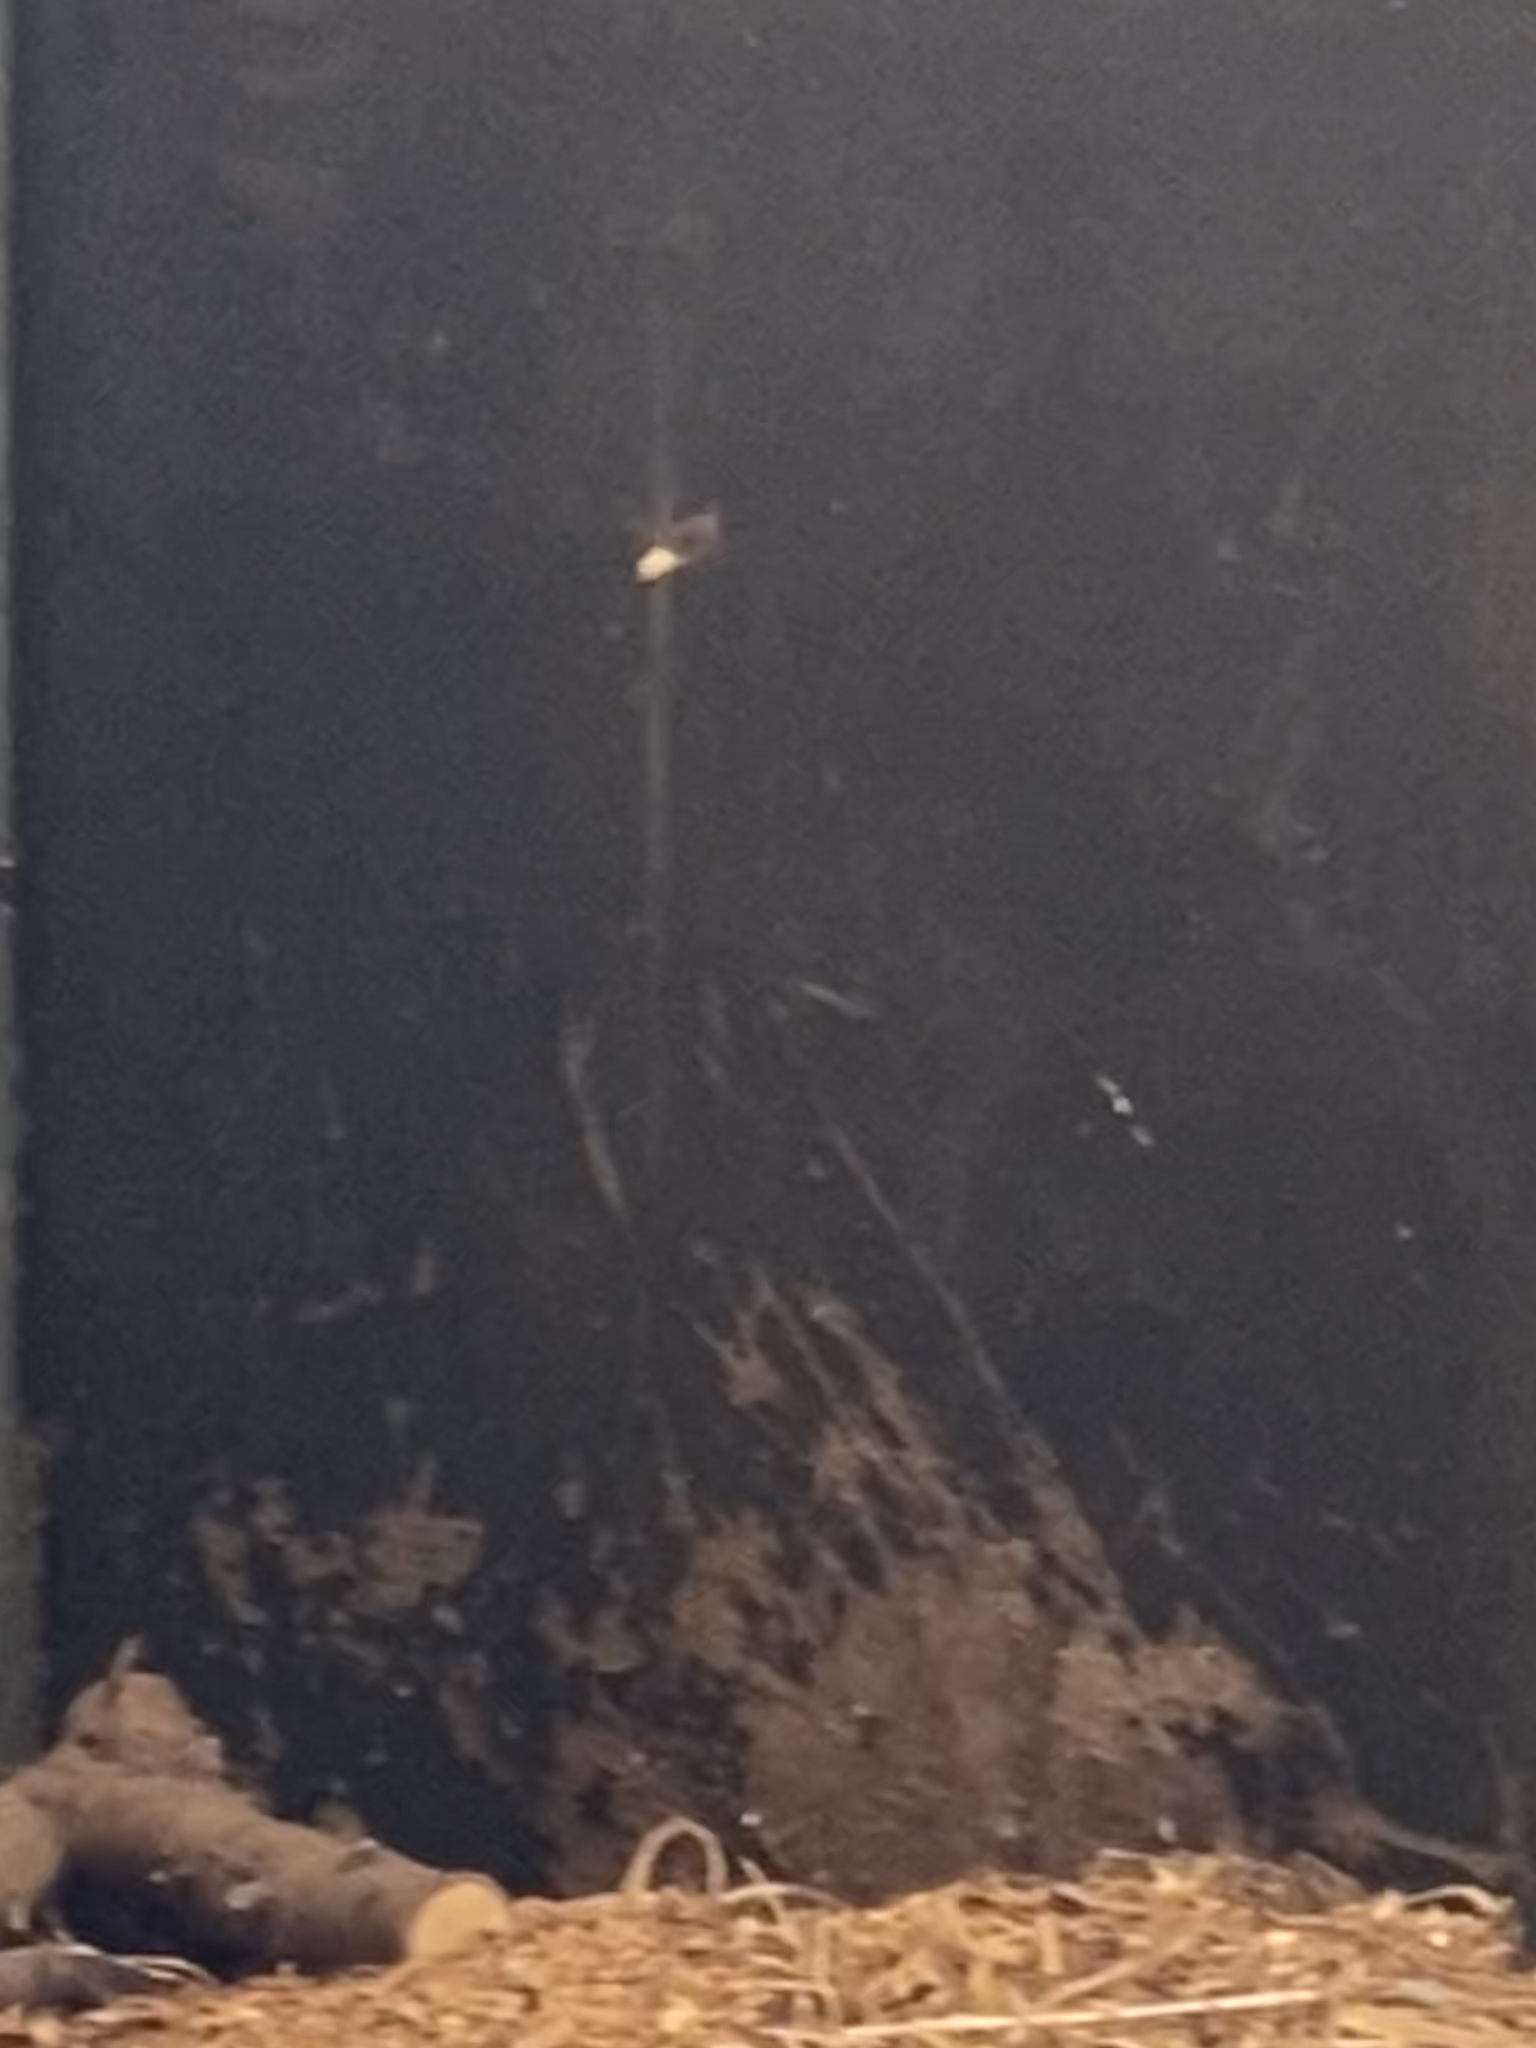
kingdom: Animalia
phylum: Arthropoda
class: Insecta
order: Hymenoptera
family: Vespidae
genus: Vespa
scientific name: Vespa crabro
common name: Hornet
